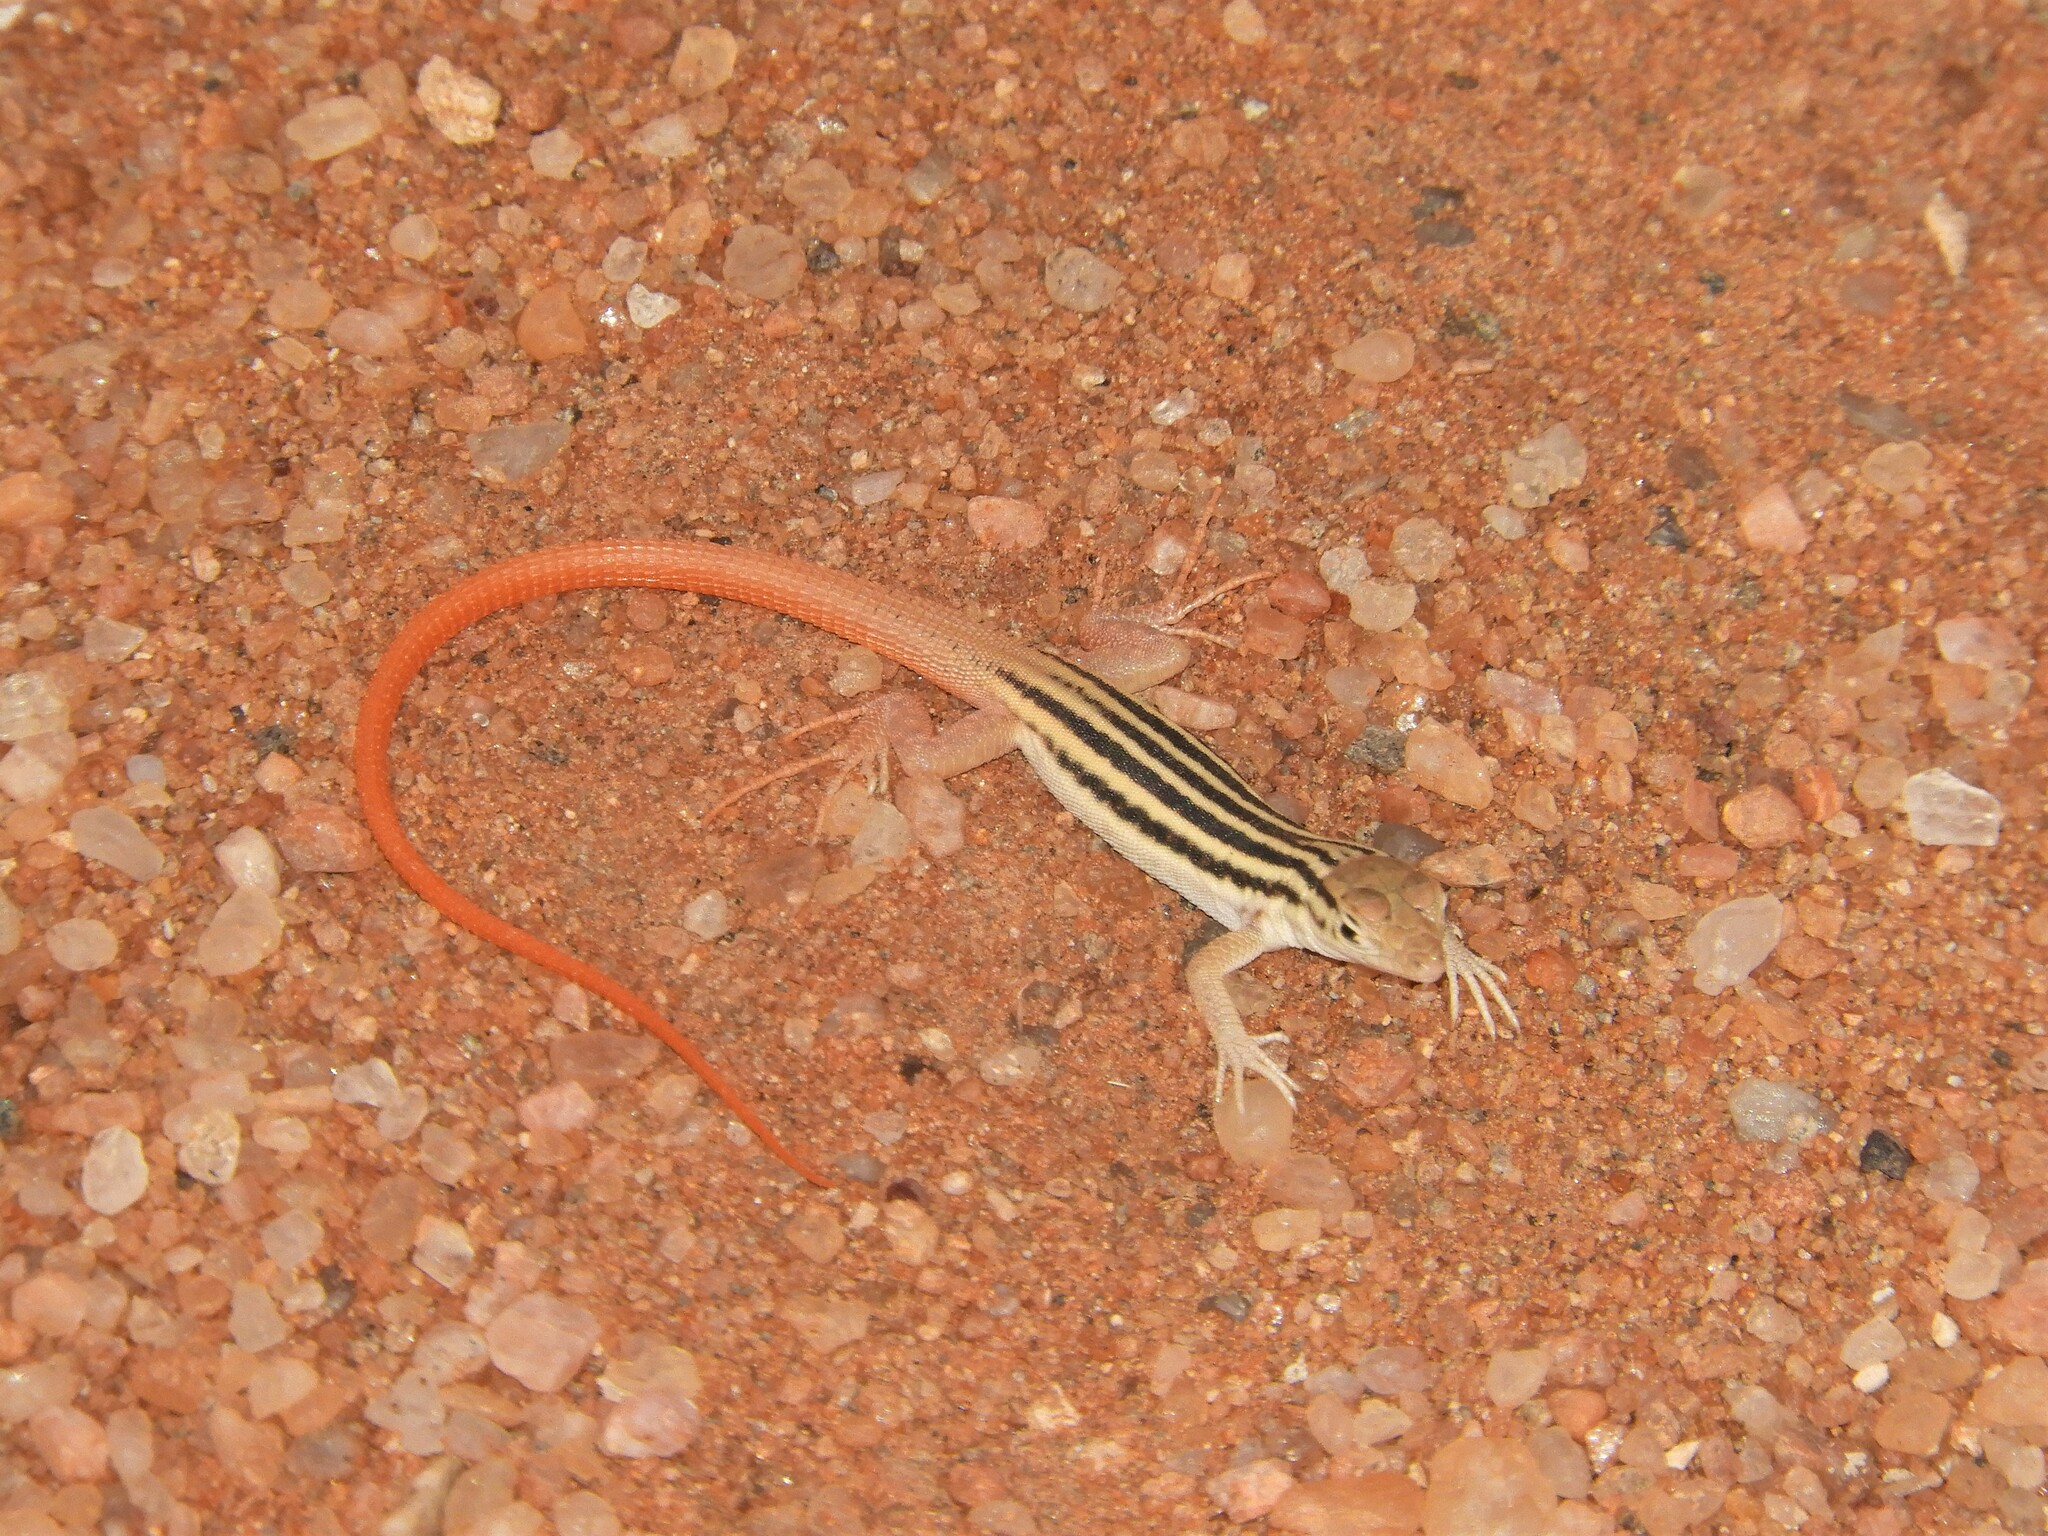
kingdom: Animalia
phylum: Chordata
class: Squamata
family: Lacertidae
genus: Pedioplanis
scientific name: Pedioplanis namaquensis
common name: Namaqua sand lizard
